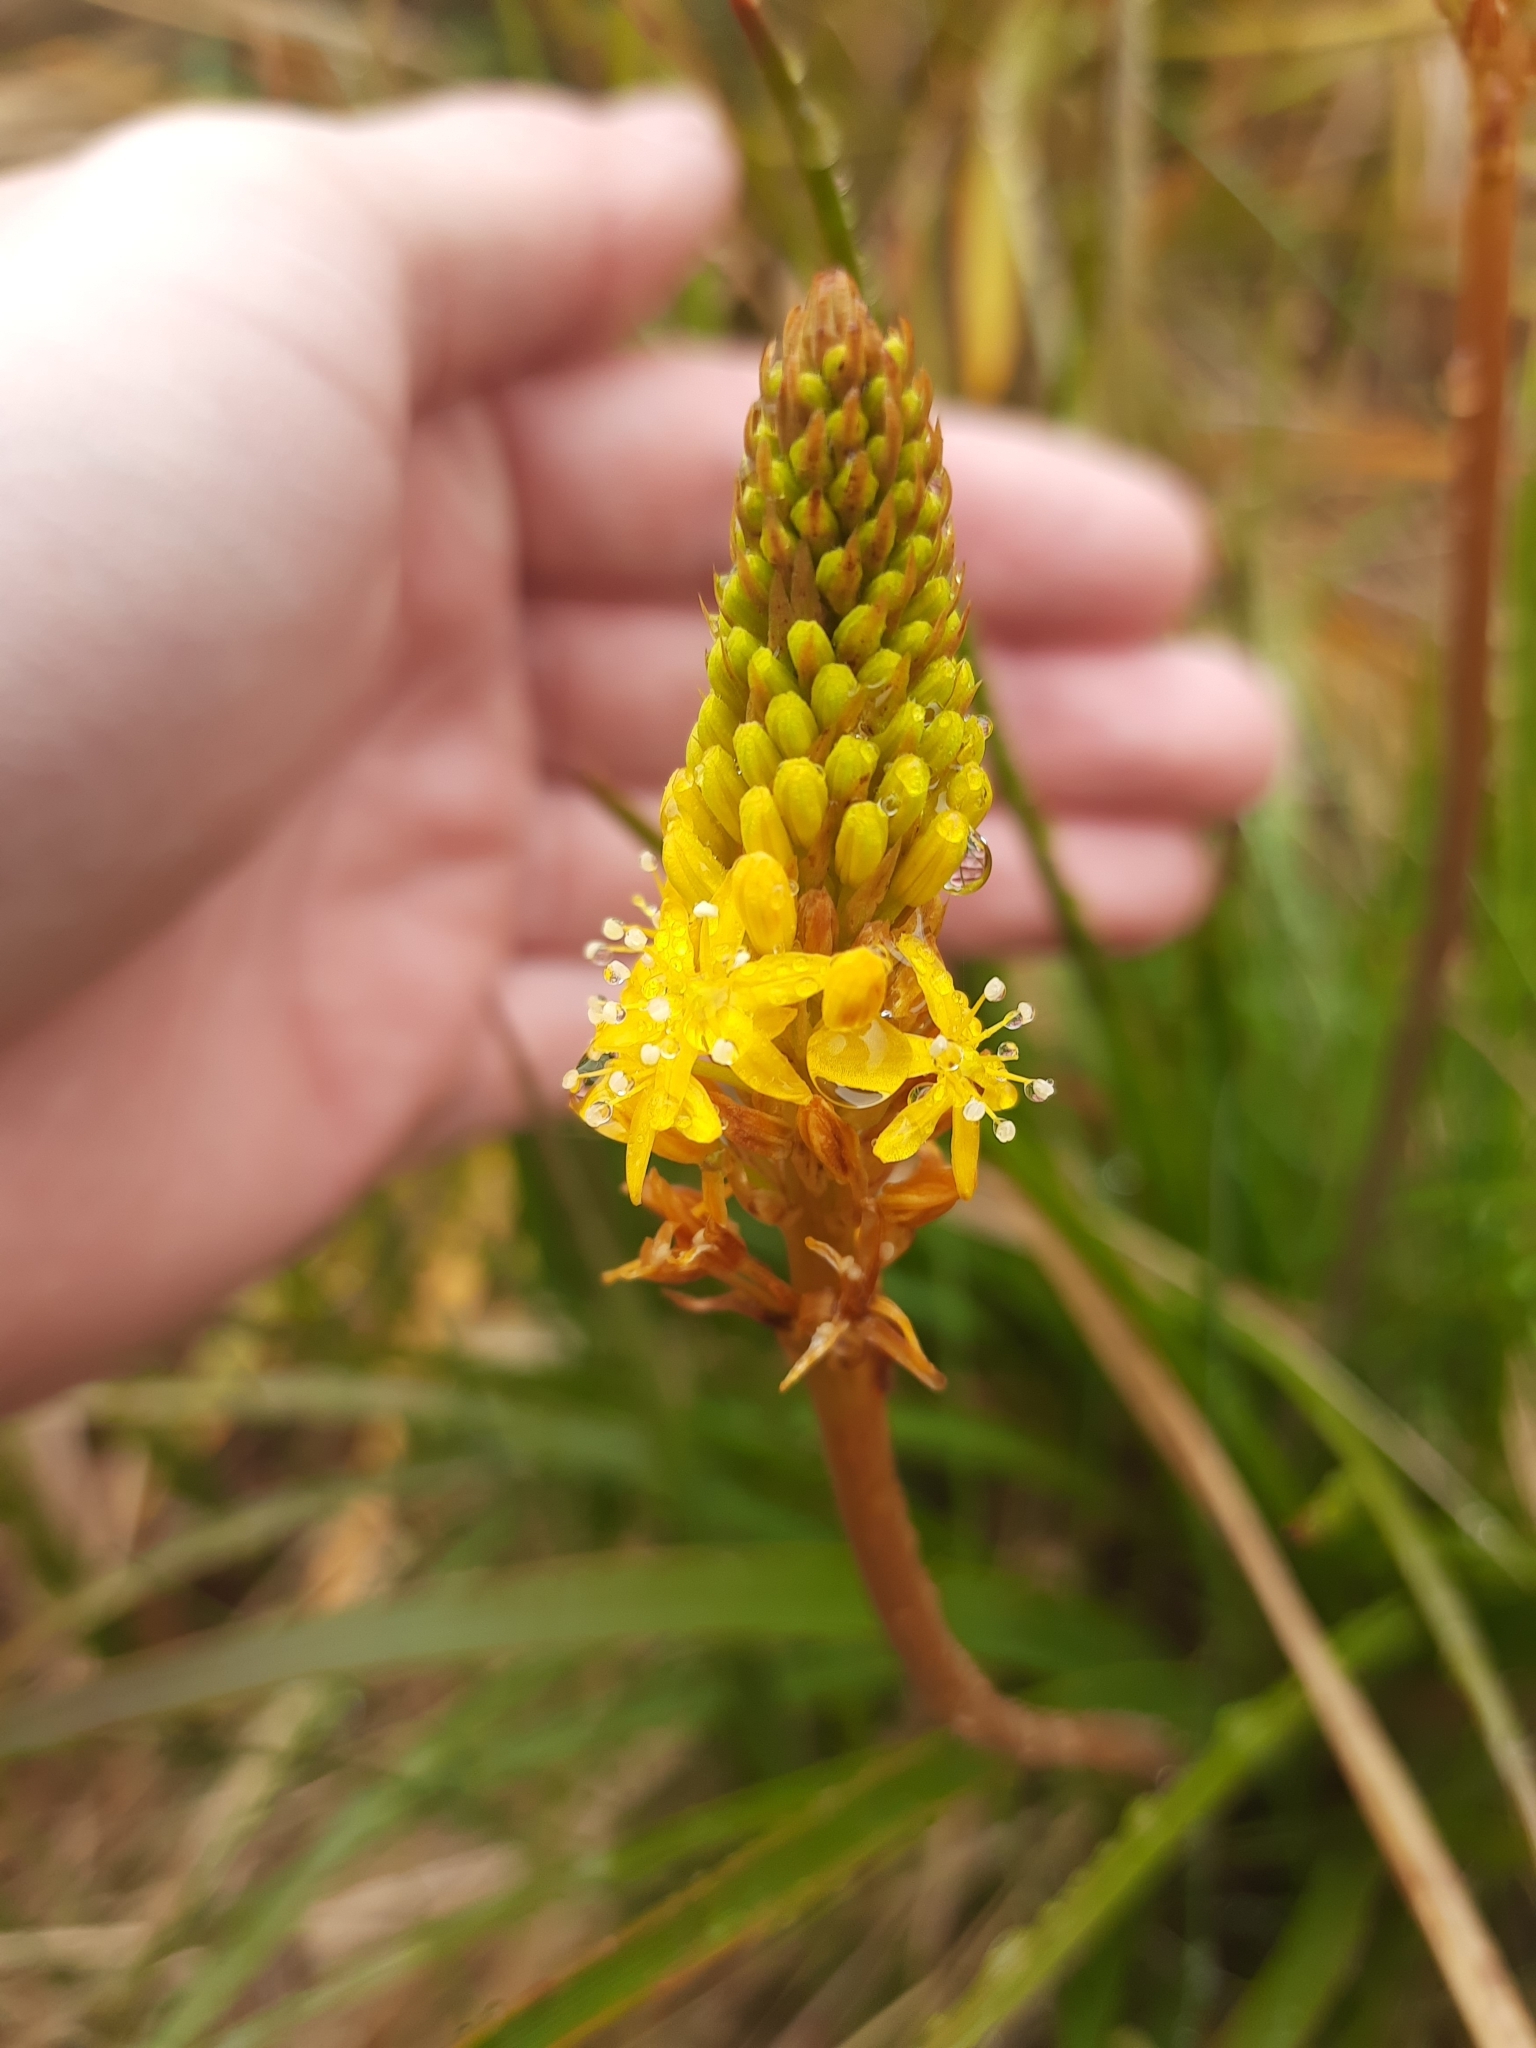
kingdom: Plantae
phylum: Tracheophyta
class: Liliopsida
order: Asparagales
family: Asphodelaceae
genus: Bulbinella
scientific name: Bulbinella angustifolia
